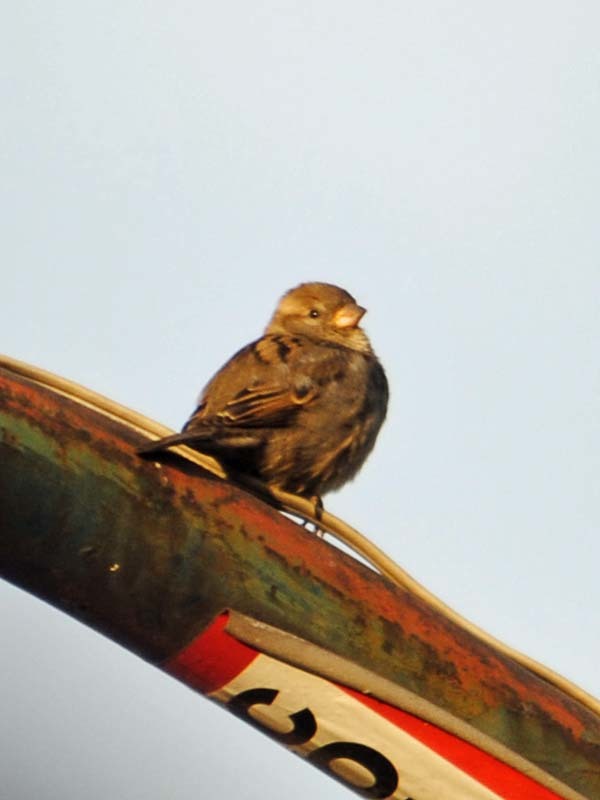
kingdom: Animalia
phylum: Chordata
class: Aves
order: Passeriformes
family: Passeridae
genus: Passer
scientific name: Passer domesticus
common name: House sparrow
